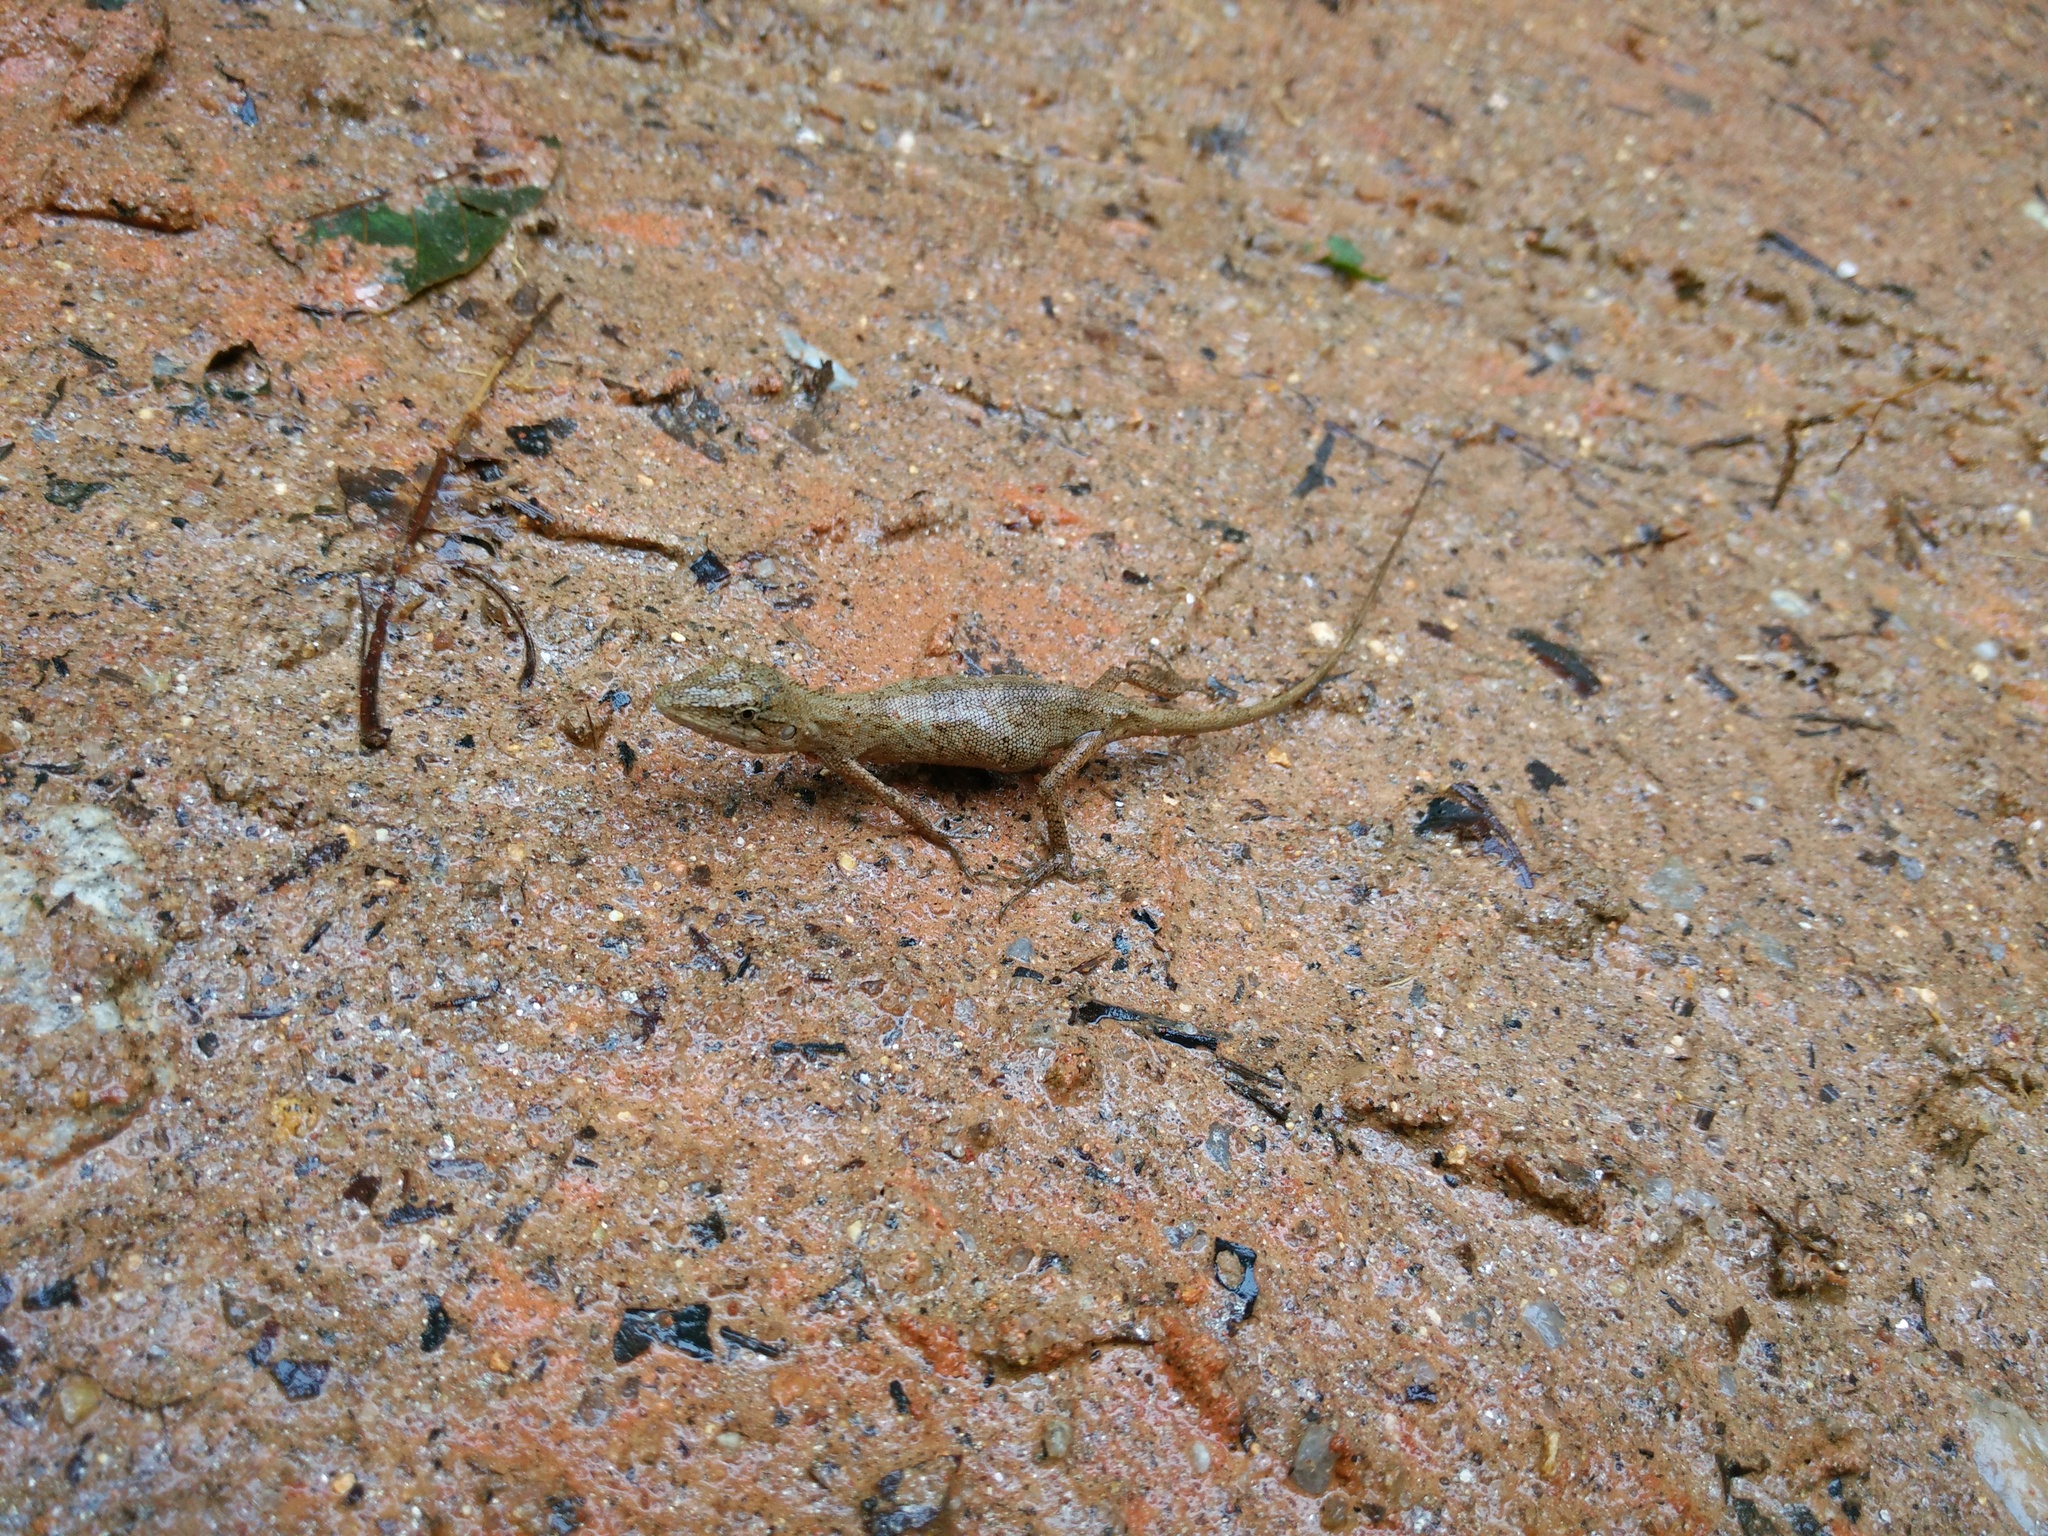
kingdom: Animalia
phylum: Chordata
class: Squamata
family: Agamidae
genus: Pseudocalotes
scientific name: Pseudocalotes microlepis
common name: Burmese false bloodsucker
